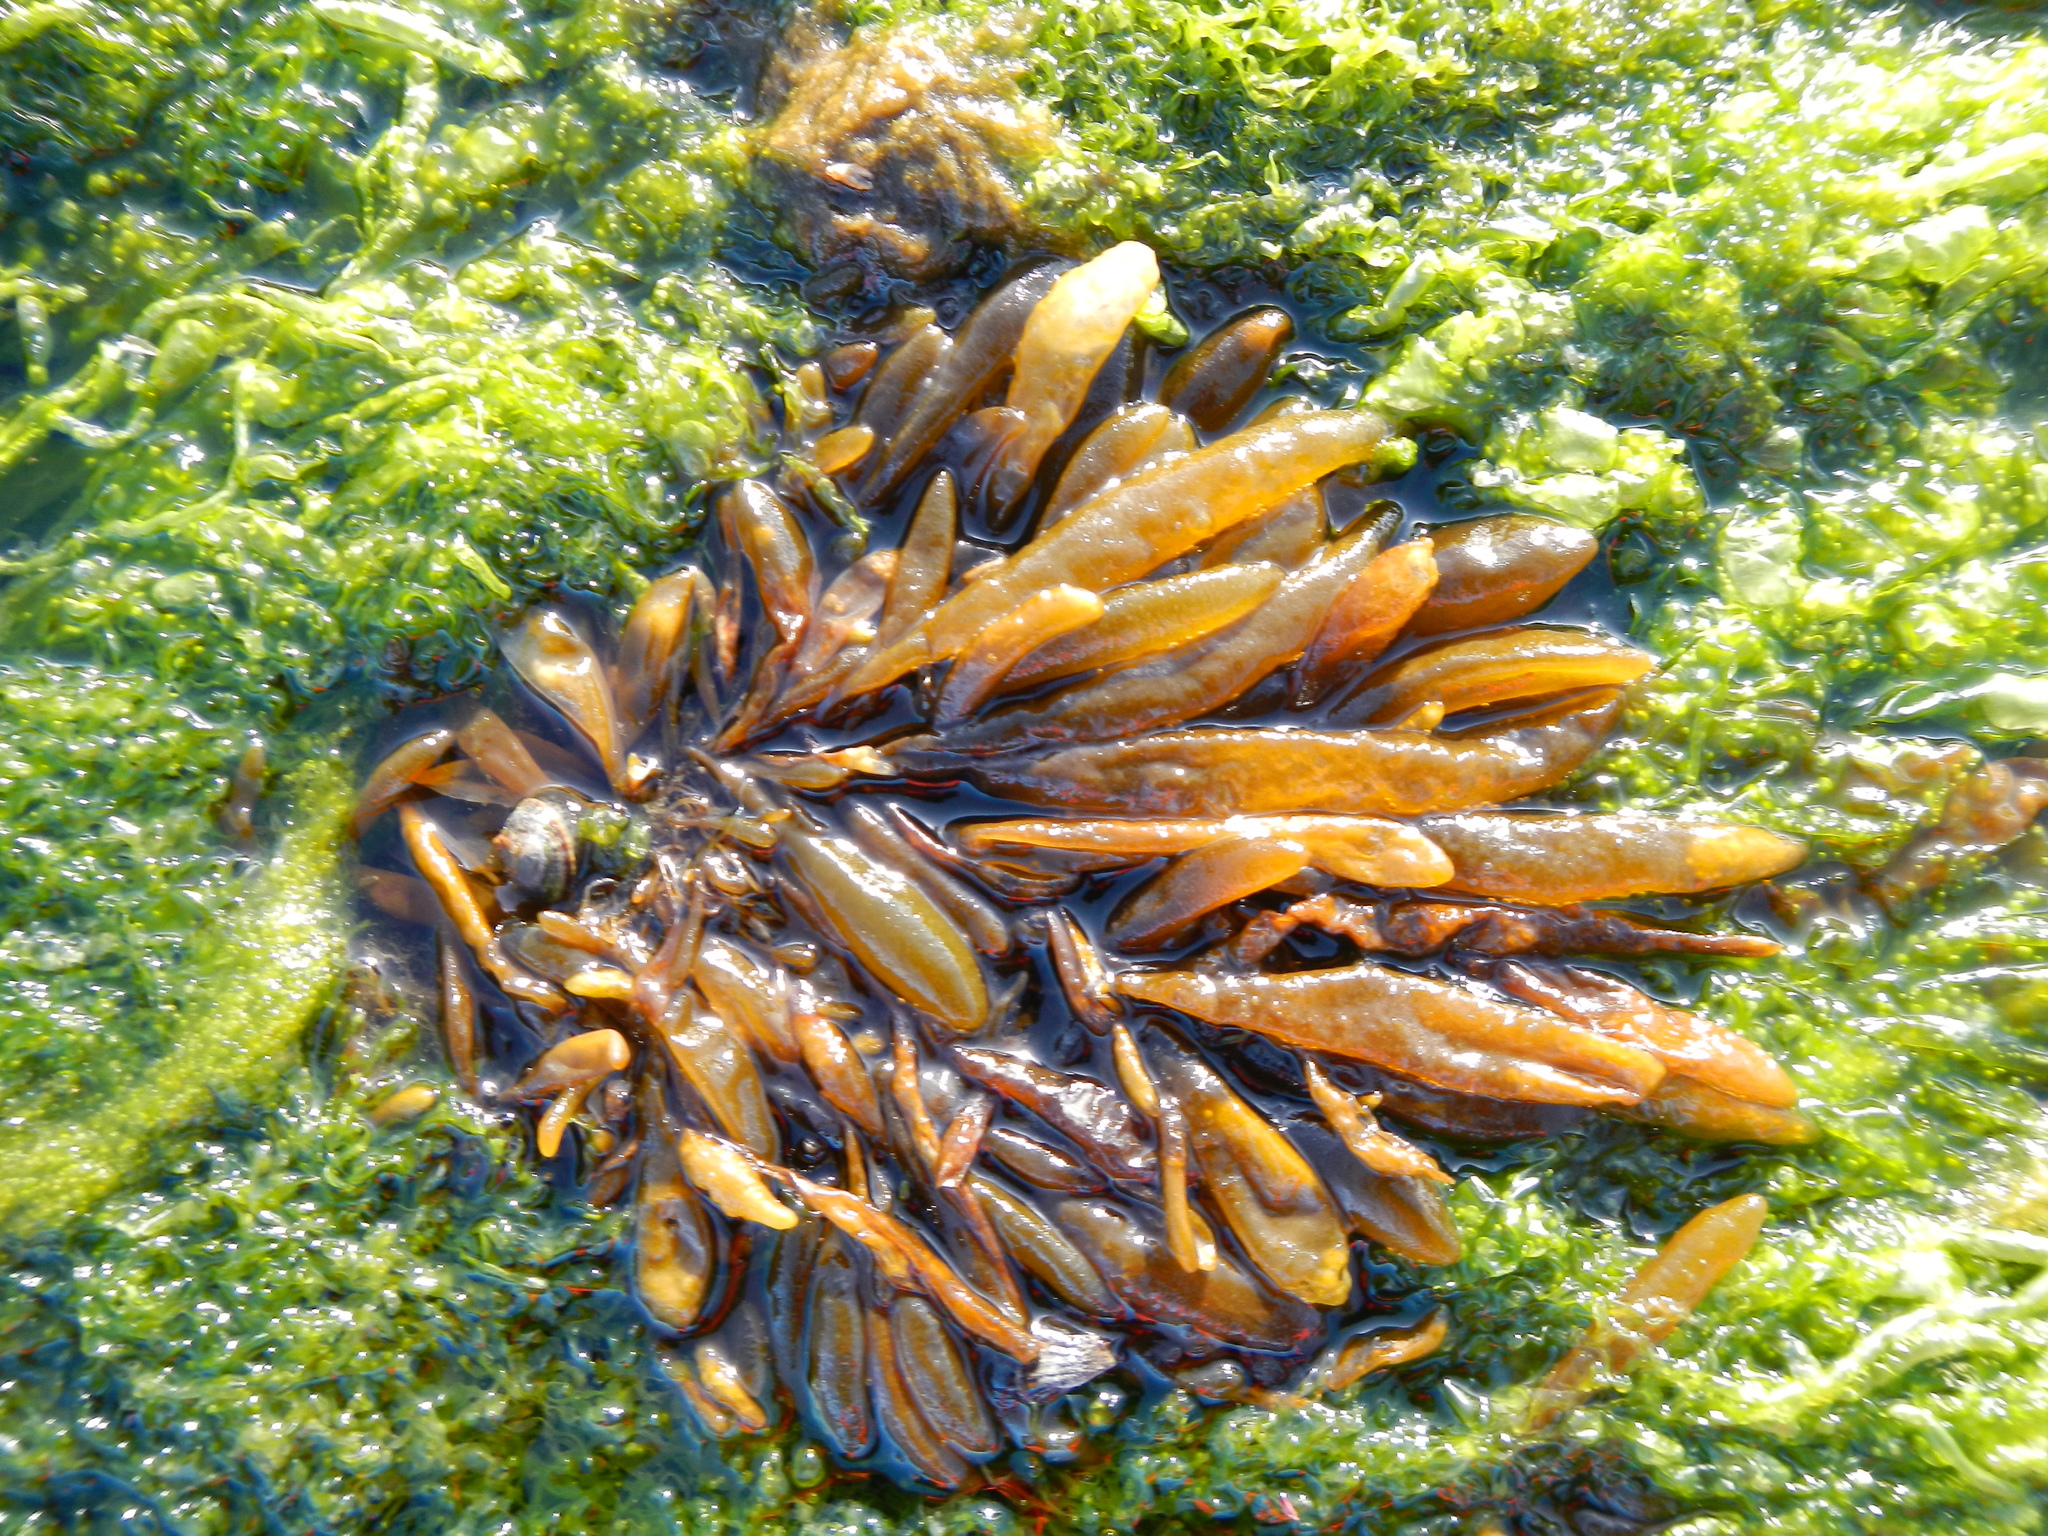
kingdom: Chromista
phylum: Ochrophyta
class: Phaeophyceae
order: Ectocarpales
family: Adenocystaceae
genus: Adenocystis
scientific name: Adenocystis utricularis
